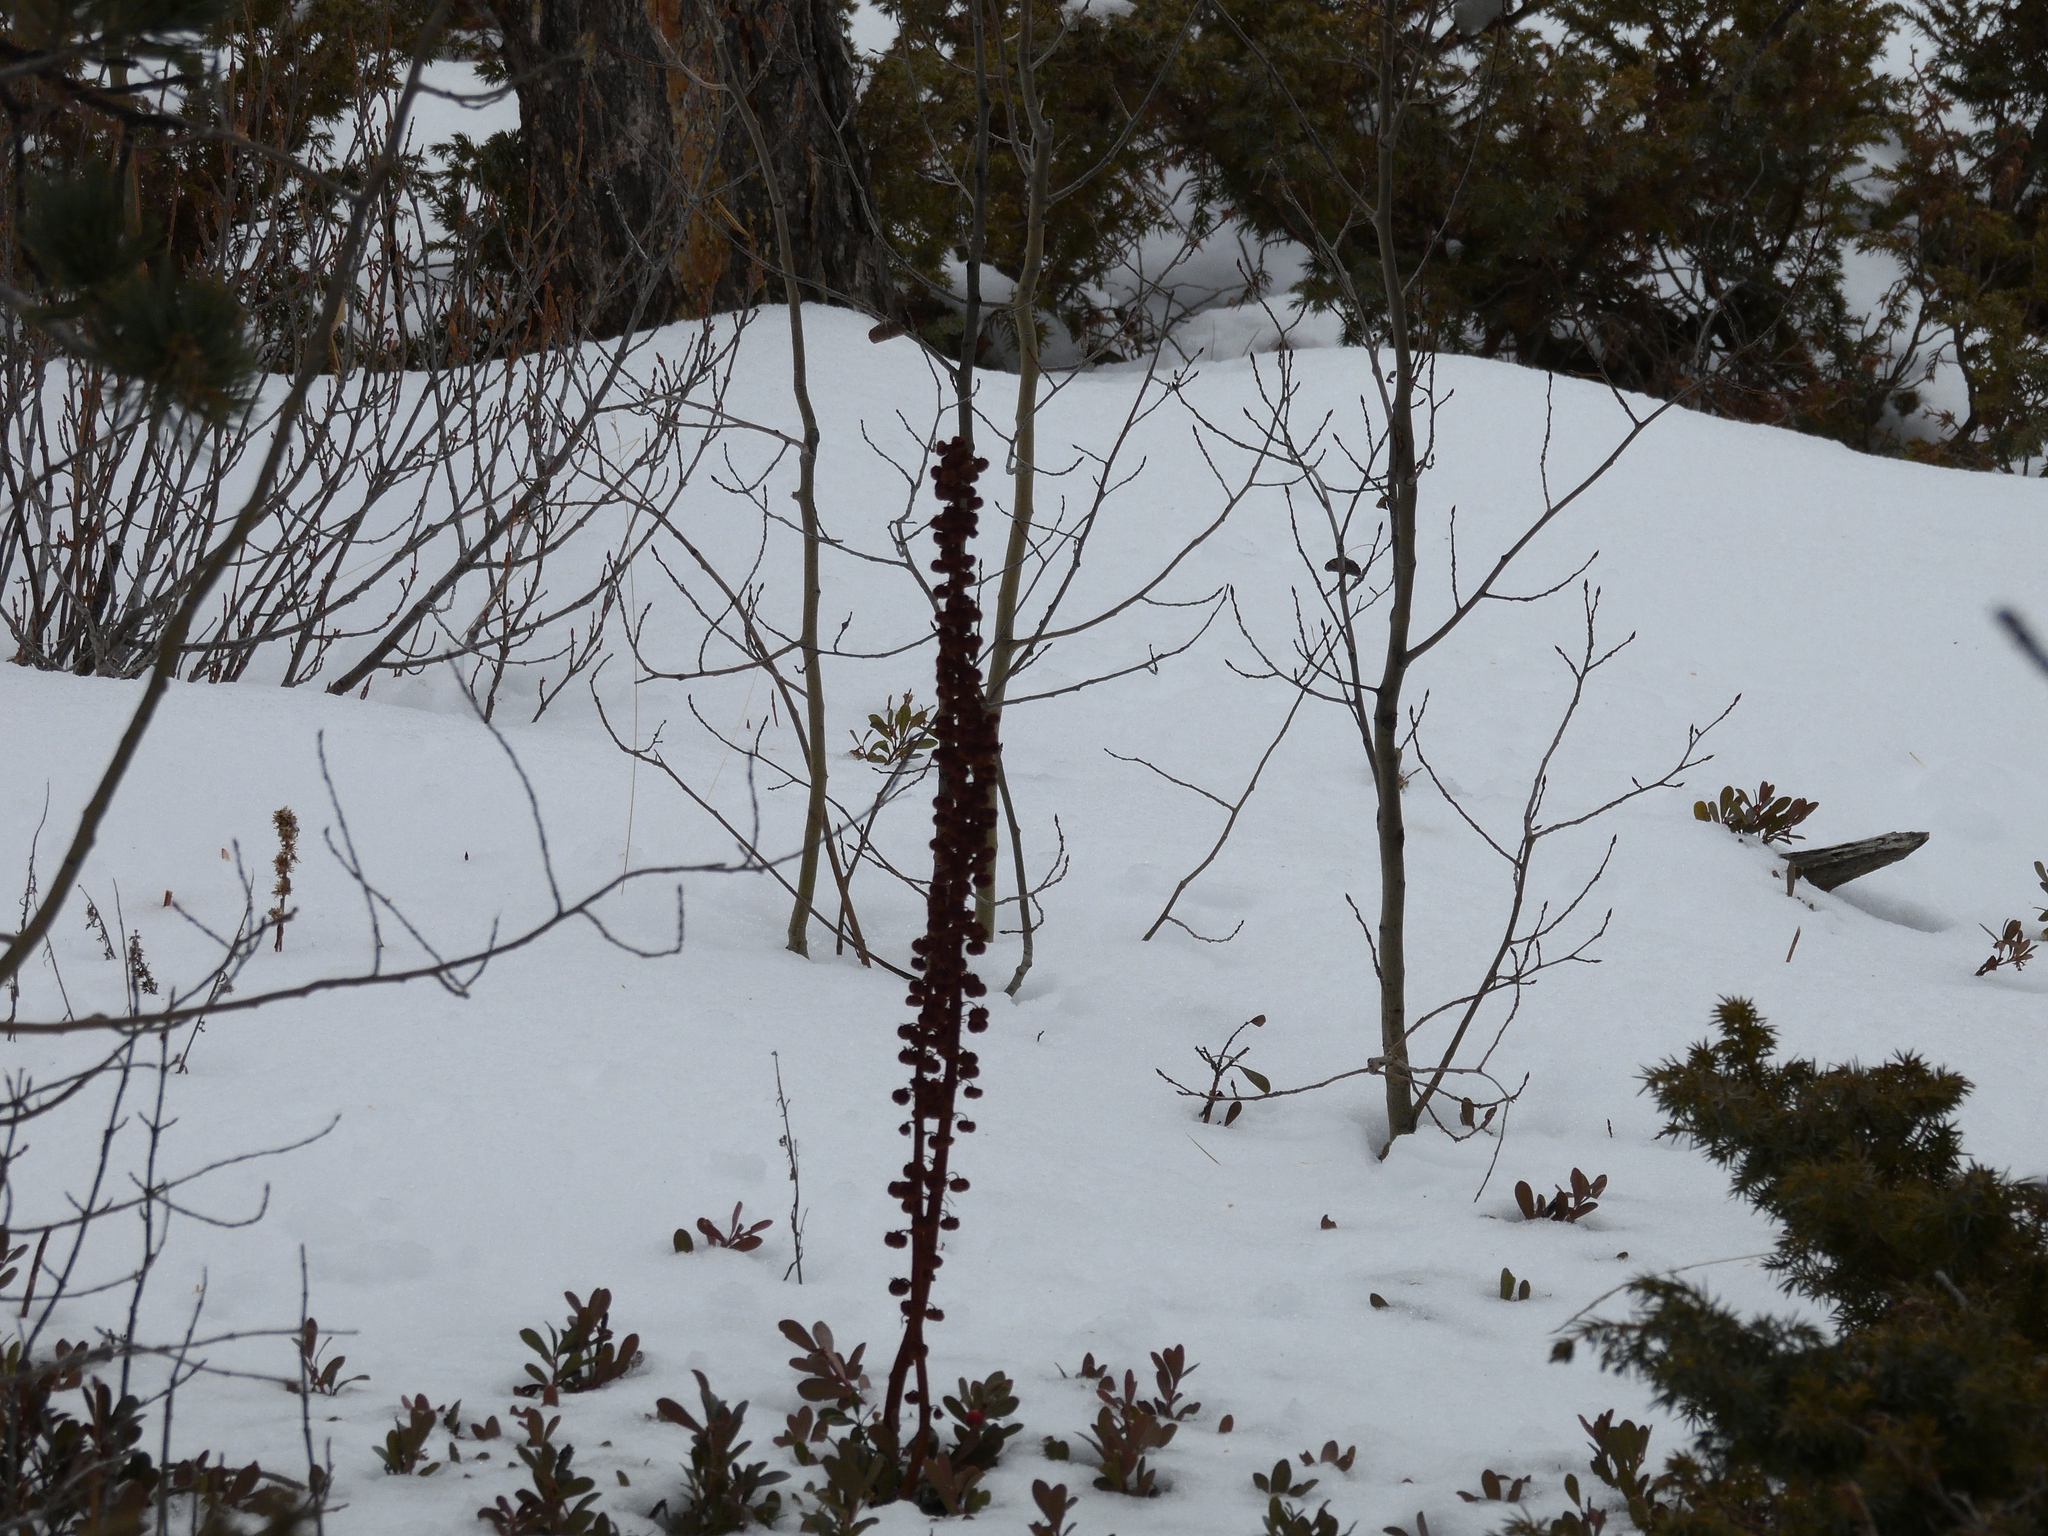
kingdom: Plantae
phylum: Tracheophyta
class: Magnoliopsida
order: Ericales
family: Ericaceae
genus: Pterospora
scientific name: Pterospora andromedea
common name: Giant bird's-nest
